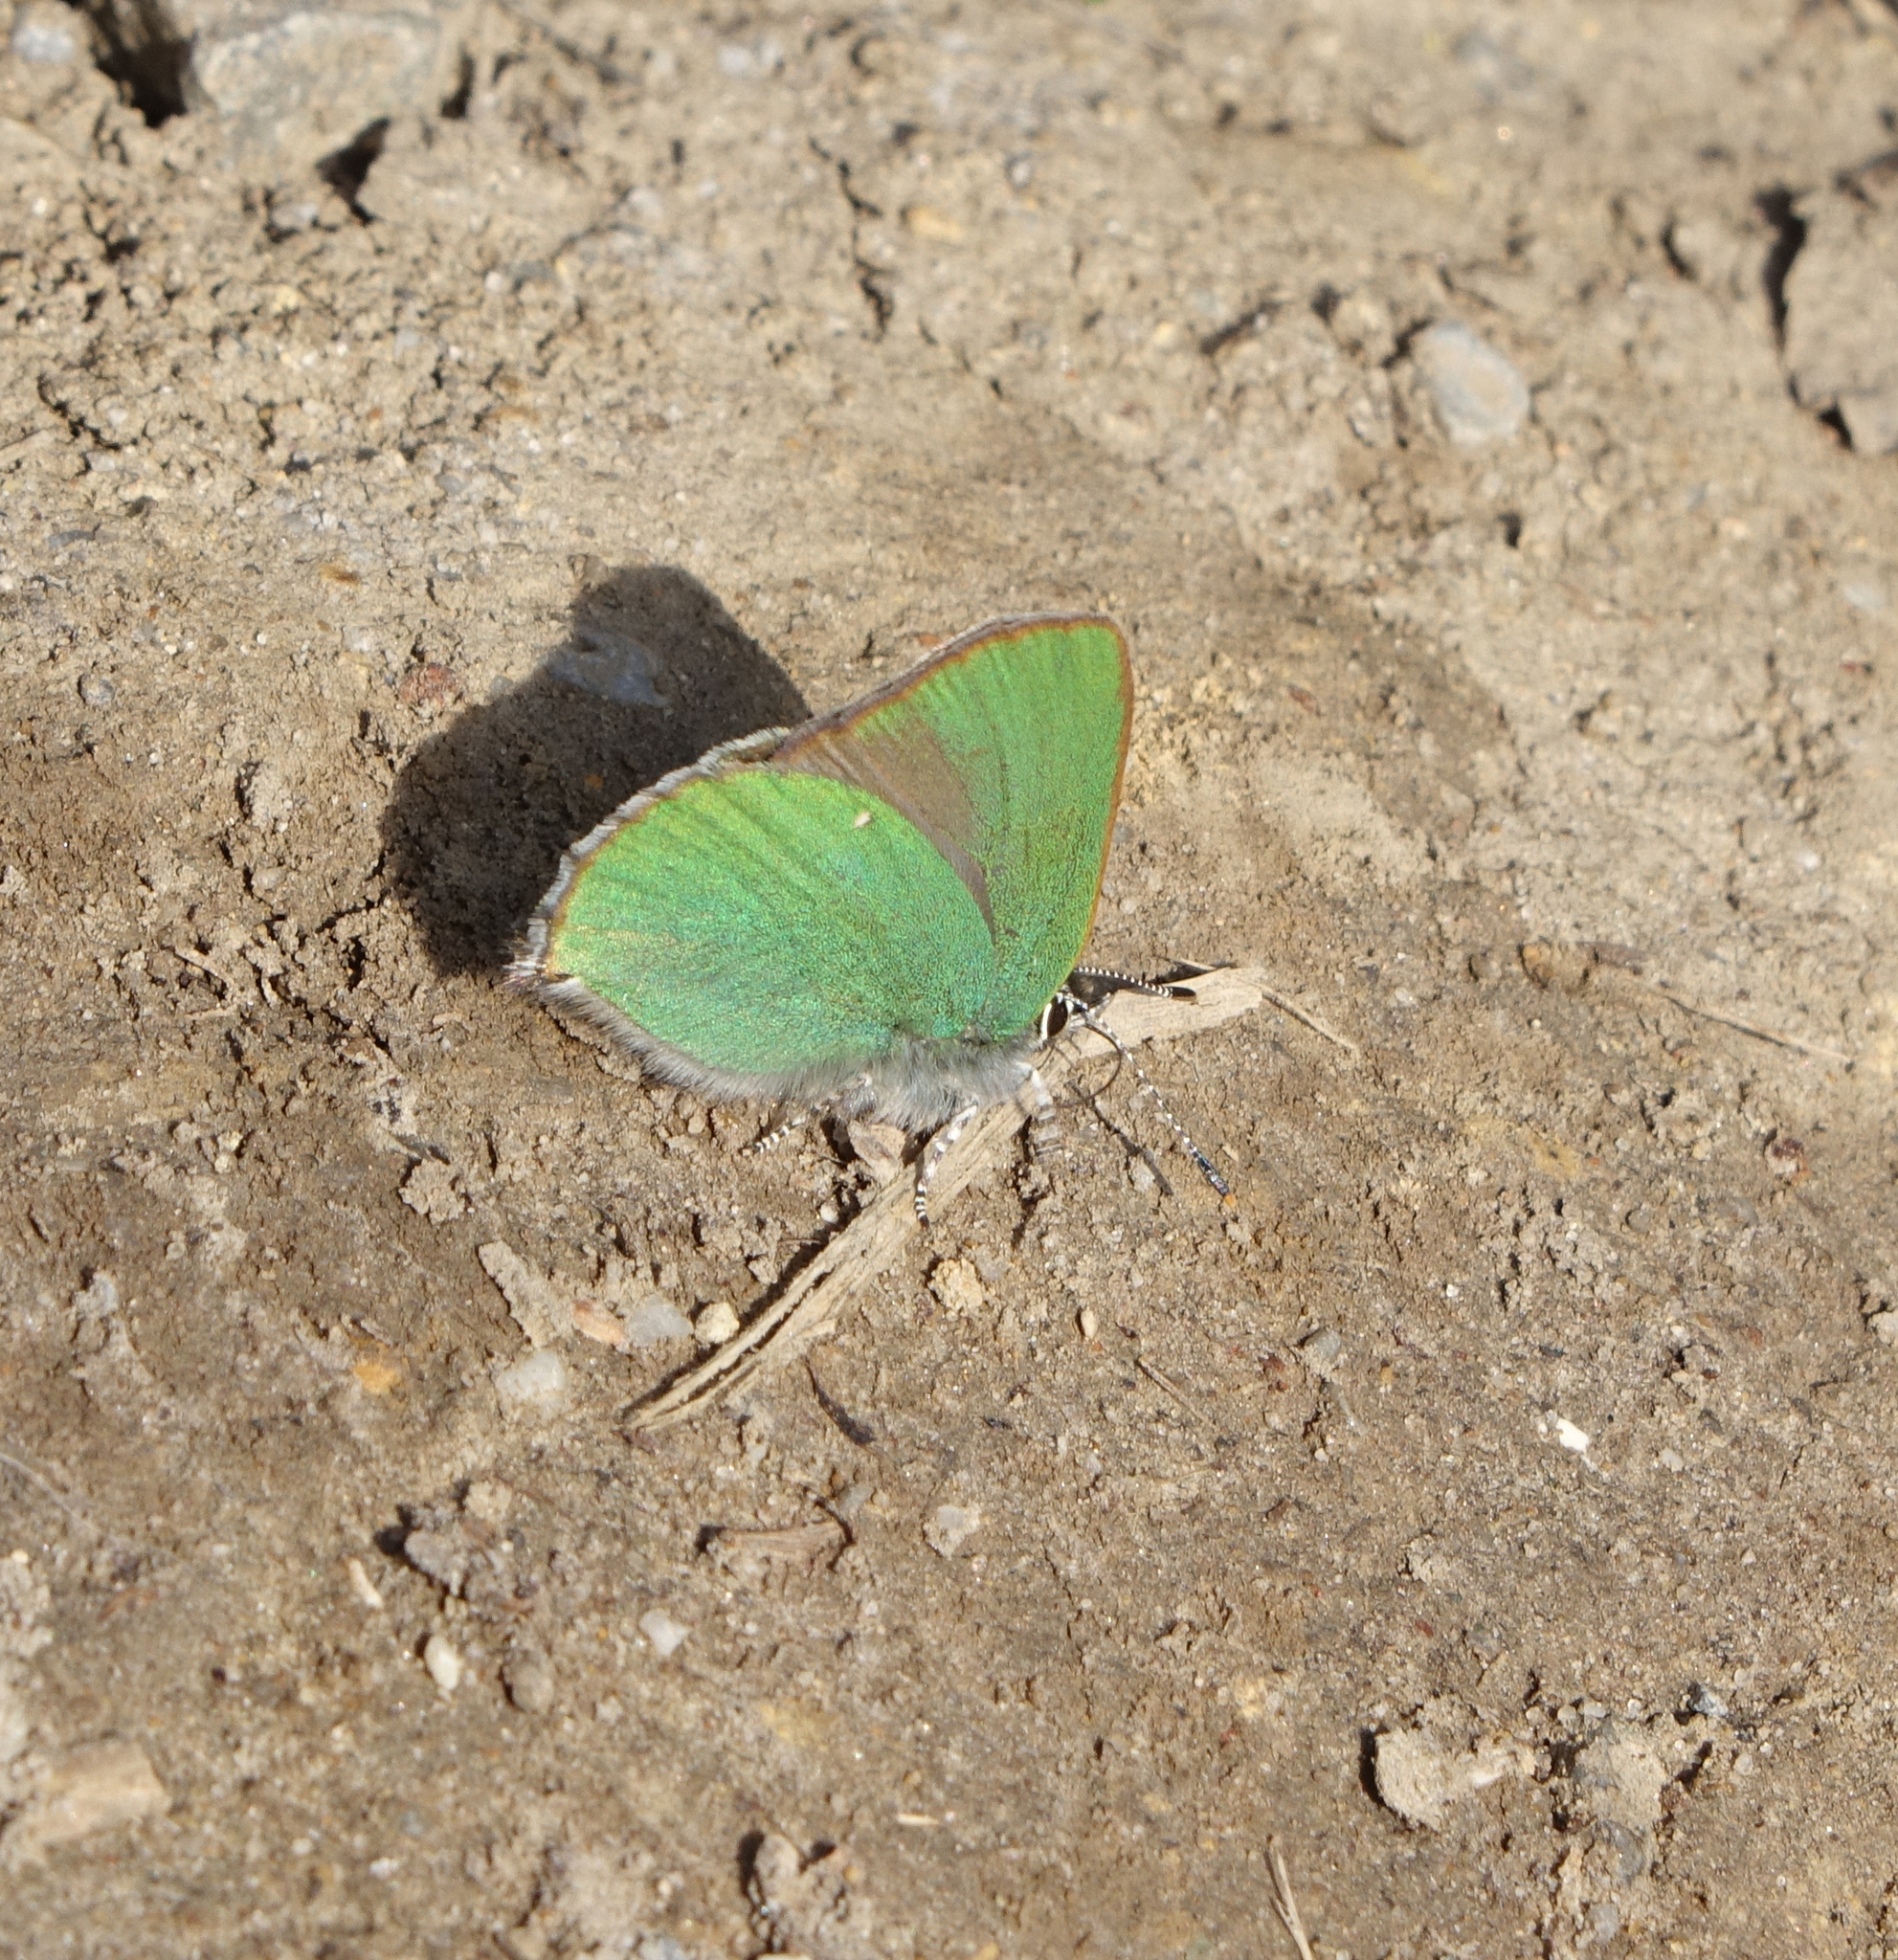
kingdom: Animalia
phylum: Arthropoda
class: Insecta
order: Lepidoptera
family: Lycaenidae
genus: Callophrys
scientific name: Callophrys rubi
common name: Green hairstreak
